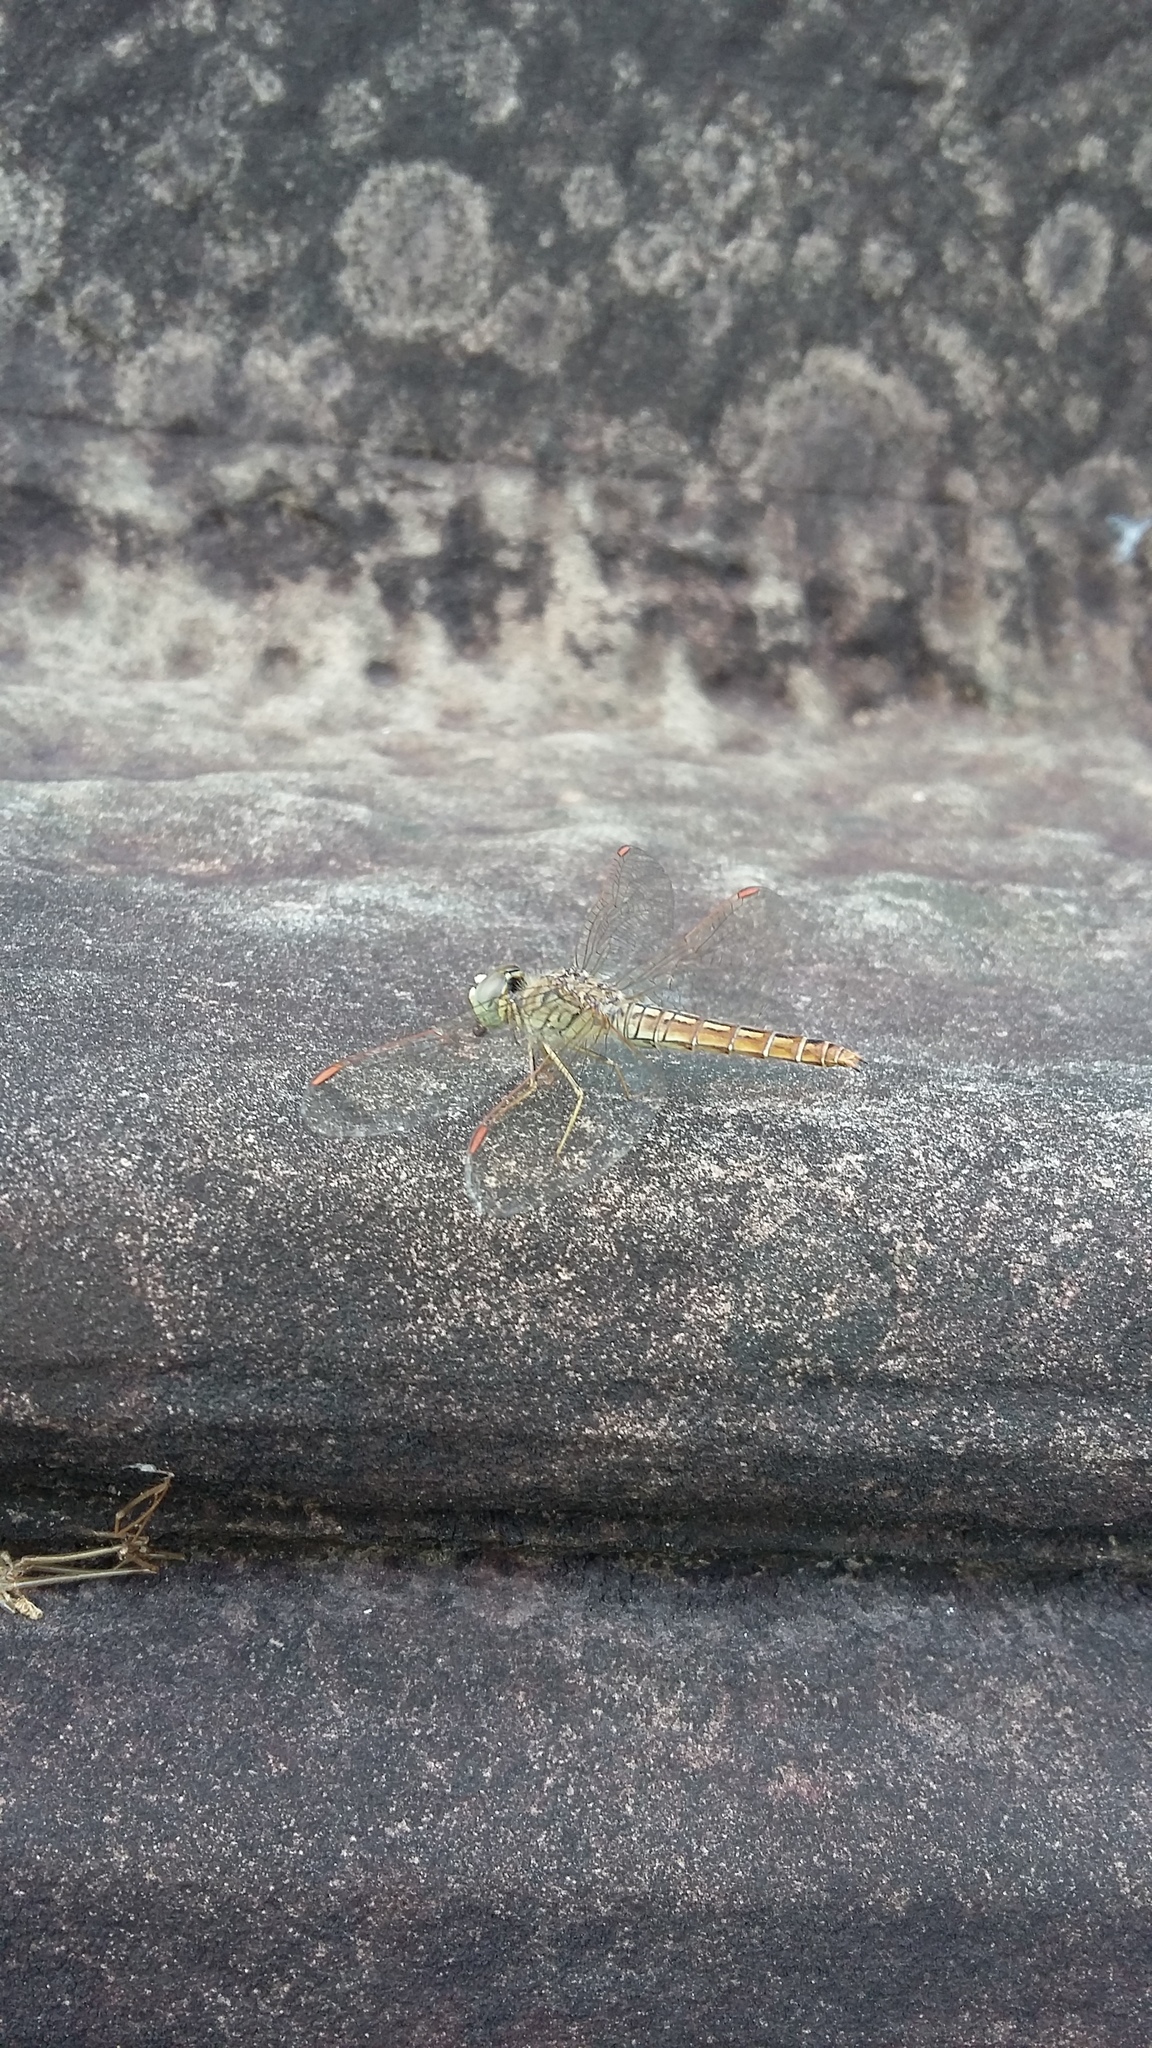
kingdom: Animalia
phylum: Arthropoda
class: Insecta
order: Odonata
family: Libellulidae
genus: Brachythemis
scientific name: Brachythemis contaminata
